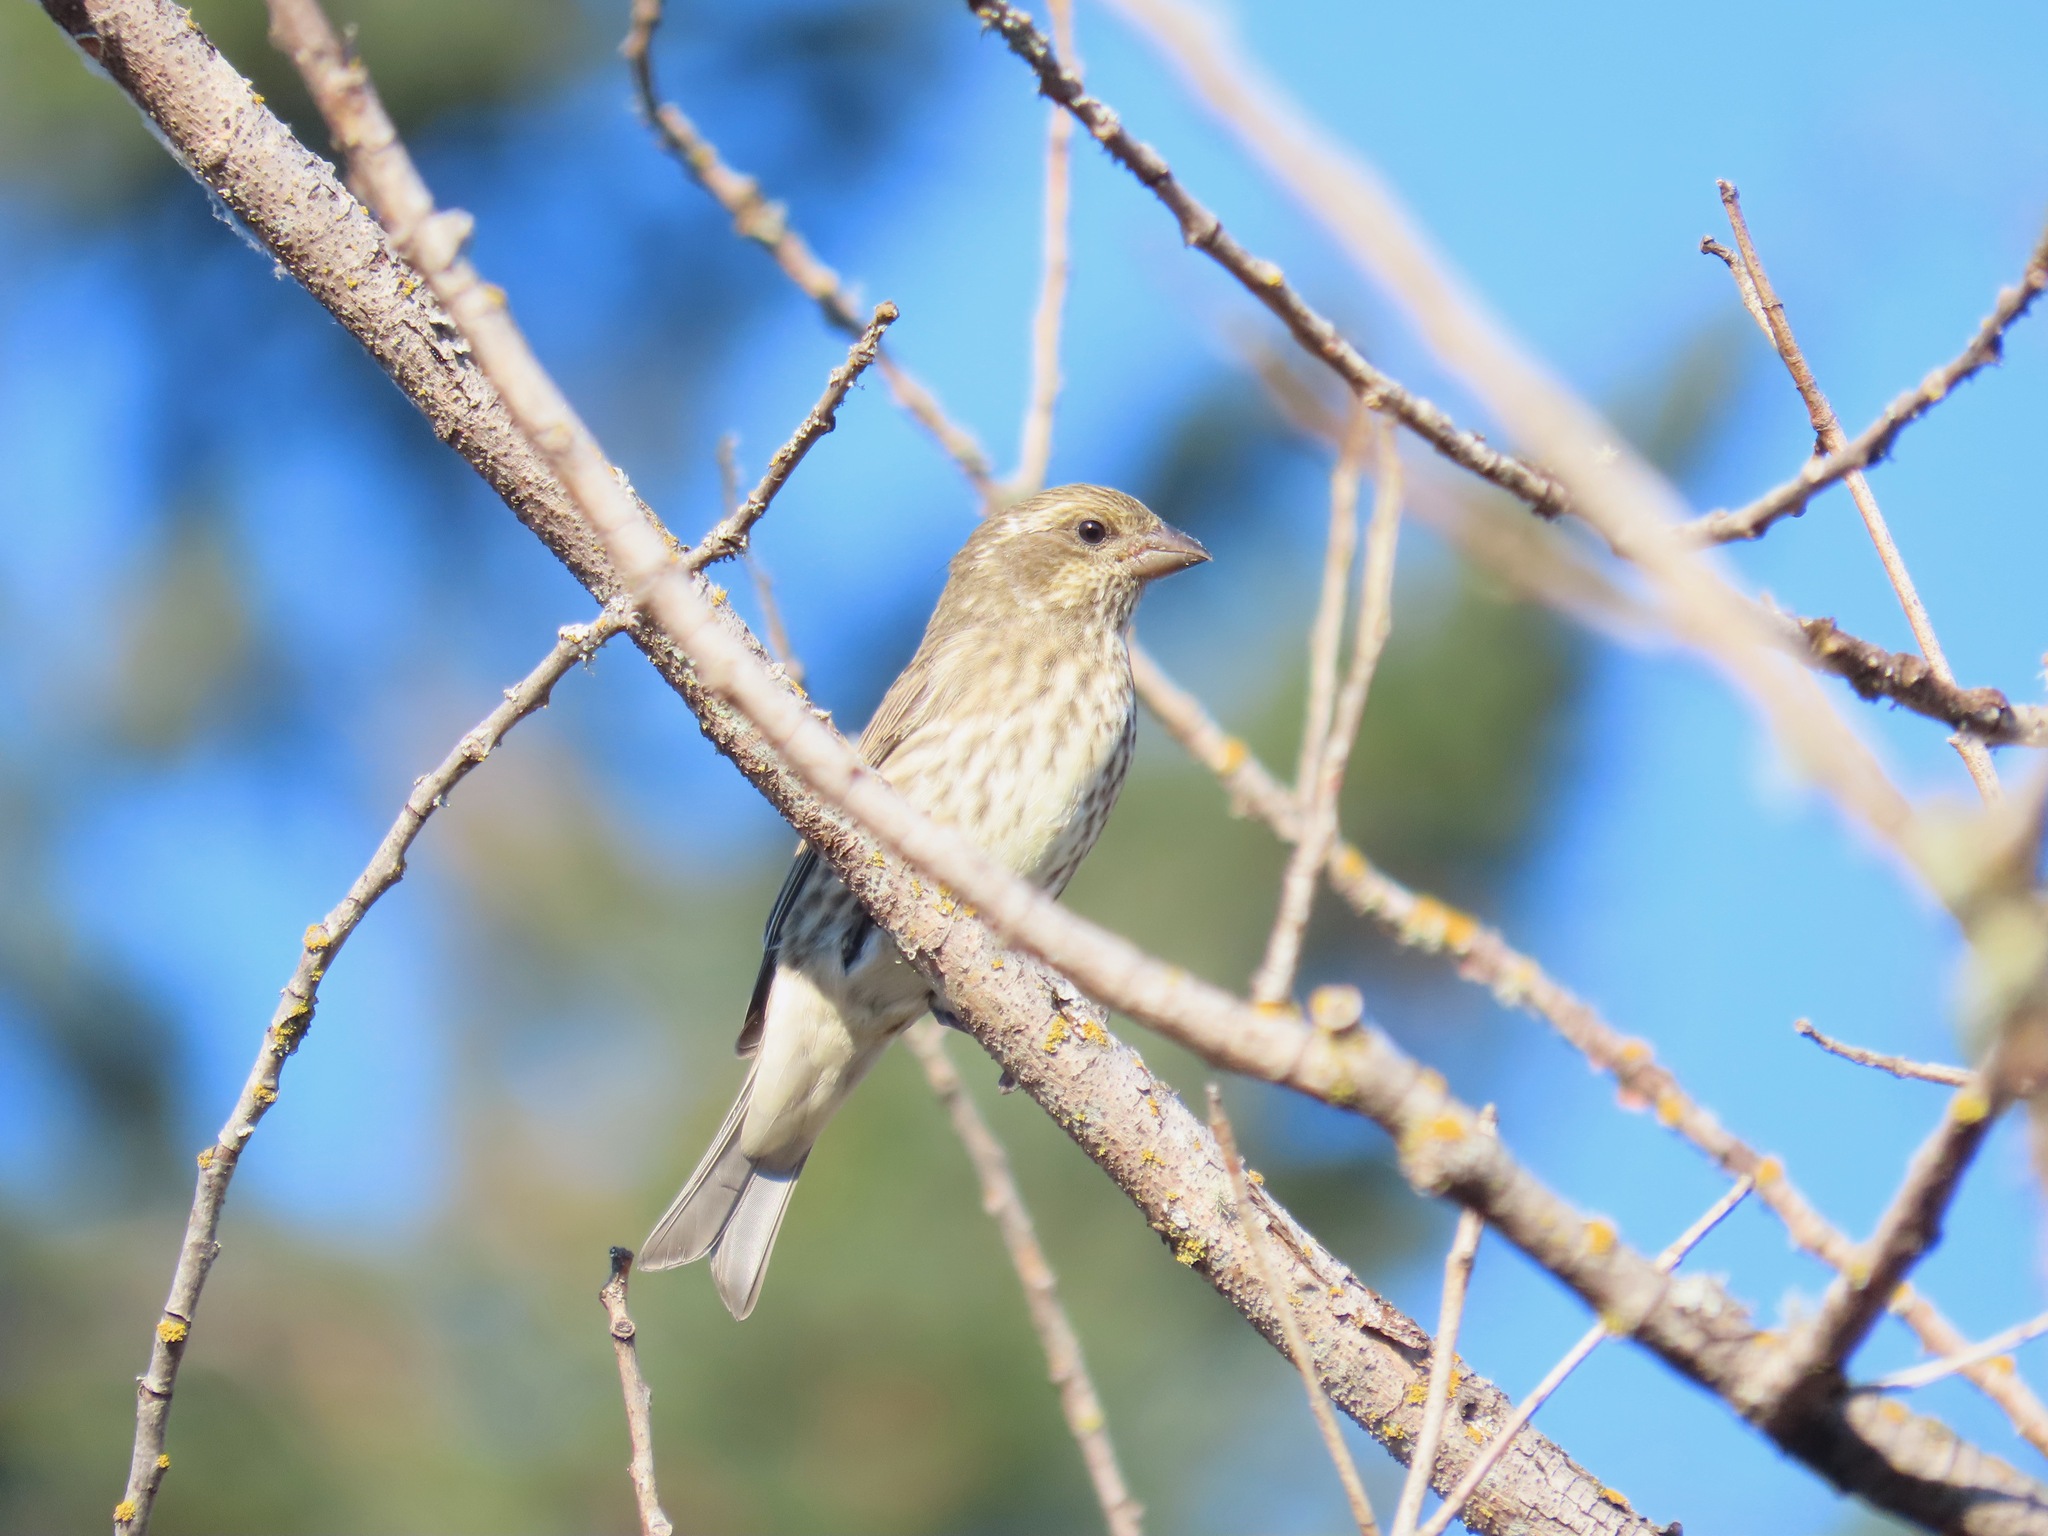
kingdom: Animalia
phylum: Chordata
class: Aves
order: Passeriformes
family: Fringillidae
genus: Haemorhous
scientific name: Haemorhous purpureus
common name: Purple finch
